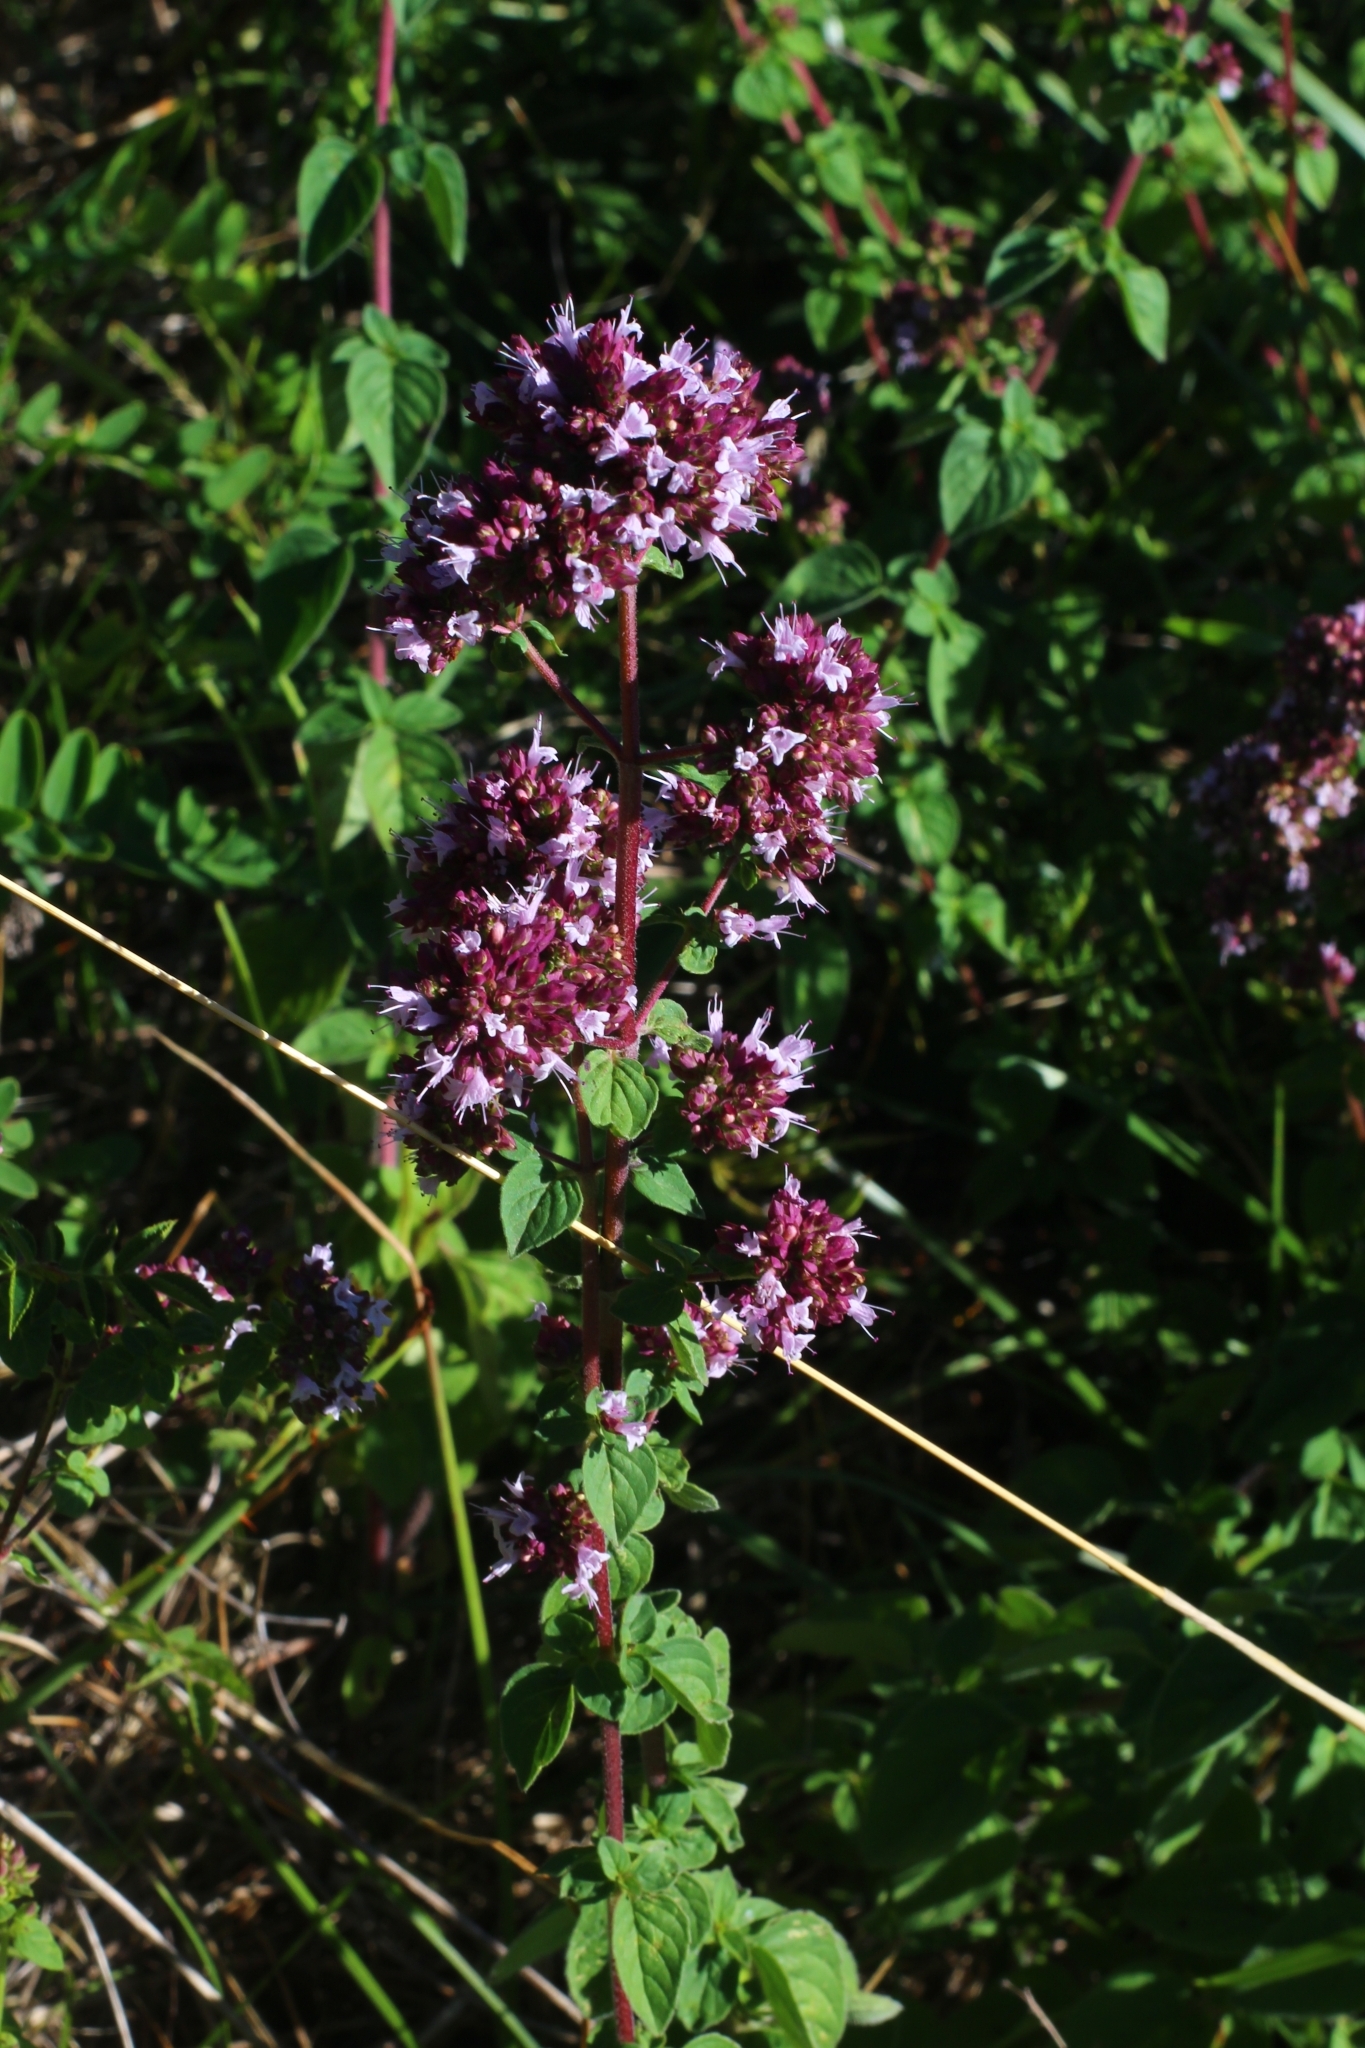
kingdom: Plantae
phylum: Tracheophyta
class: Magnoliopsida
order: Lamiales
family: Lamiaceae
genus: Origanum
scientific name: Origanum vulgare
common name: Wild marjoram
